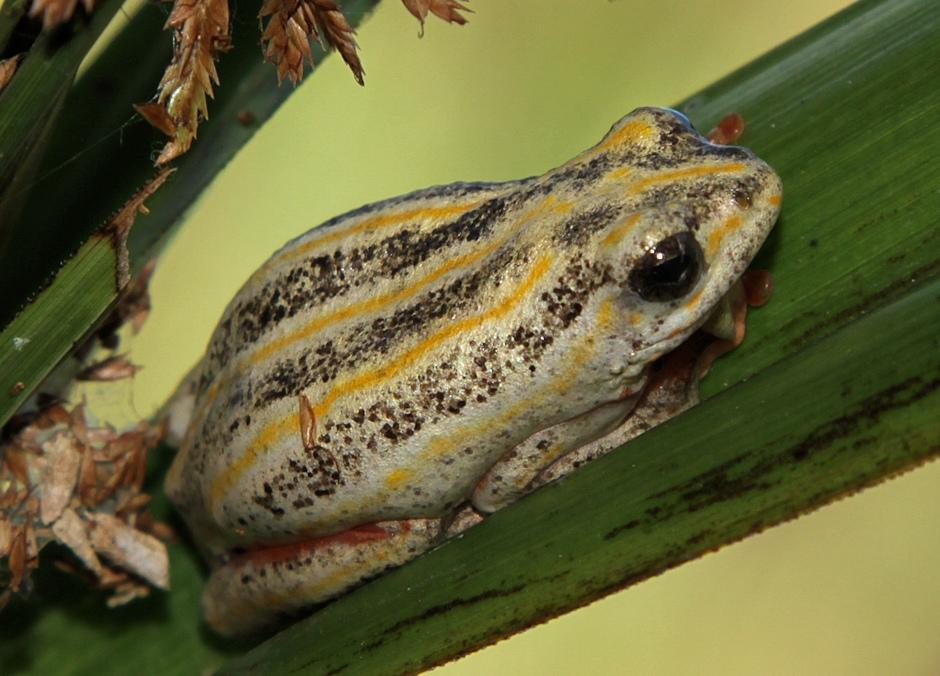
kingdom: Animalia
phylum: Chordata
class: Amphibia
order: Anura
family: Hyperoliidae
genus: Hyperolius
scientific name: Hyperolius marmoratus
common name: Painted reed frog
